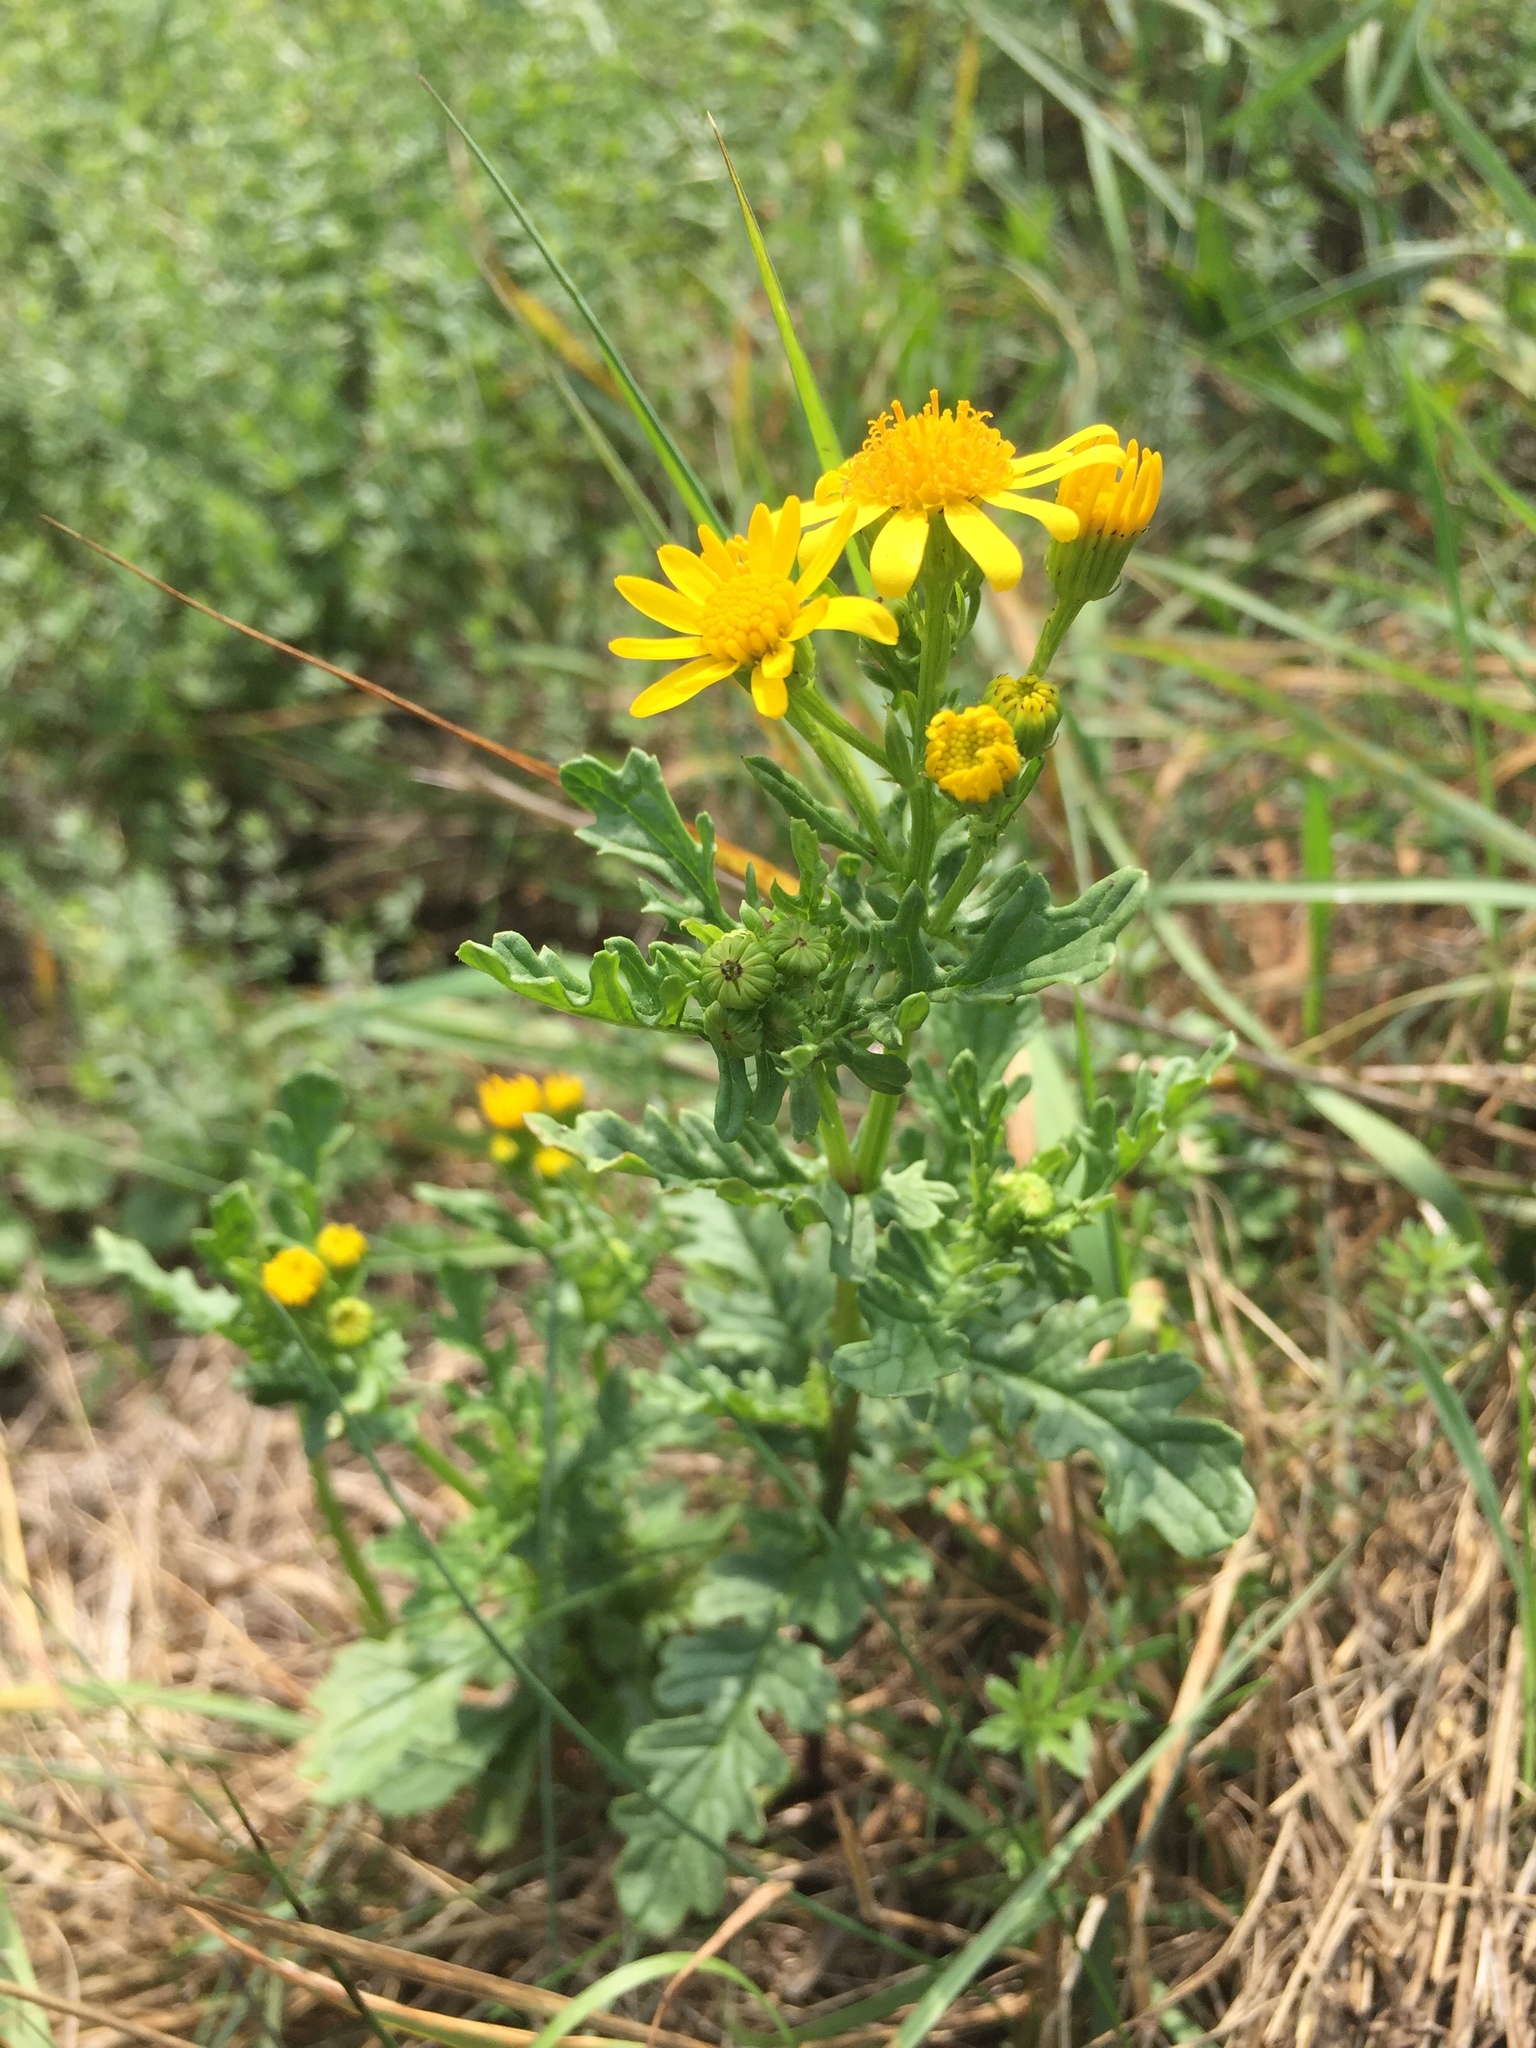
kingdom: Plantae
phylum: Tracheophyta
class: Magnoliopsida
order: Asterales
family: Asteraceae
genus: Jacobaea
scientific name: Jacobaea vulgaris
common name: Stinking willie
